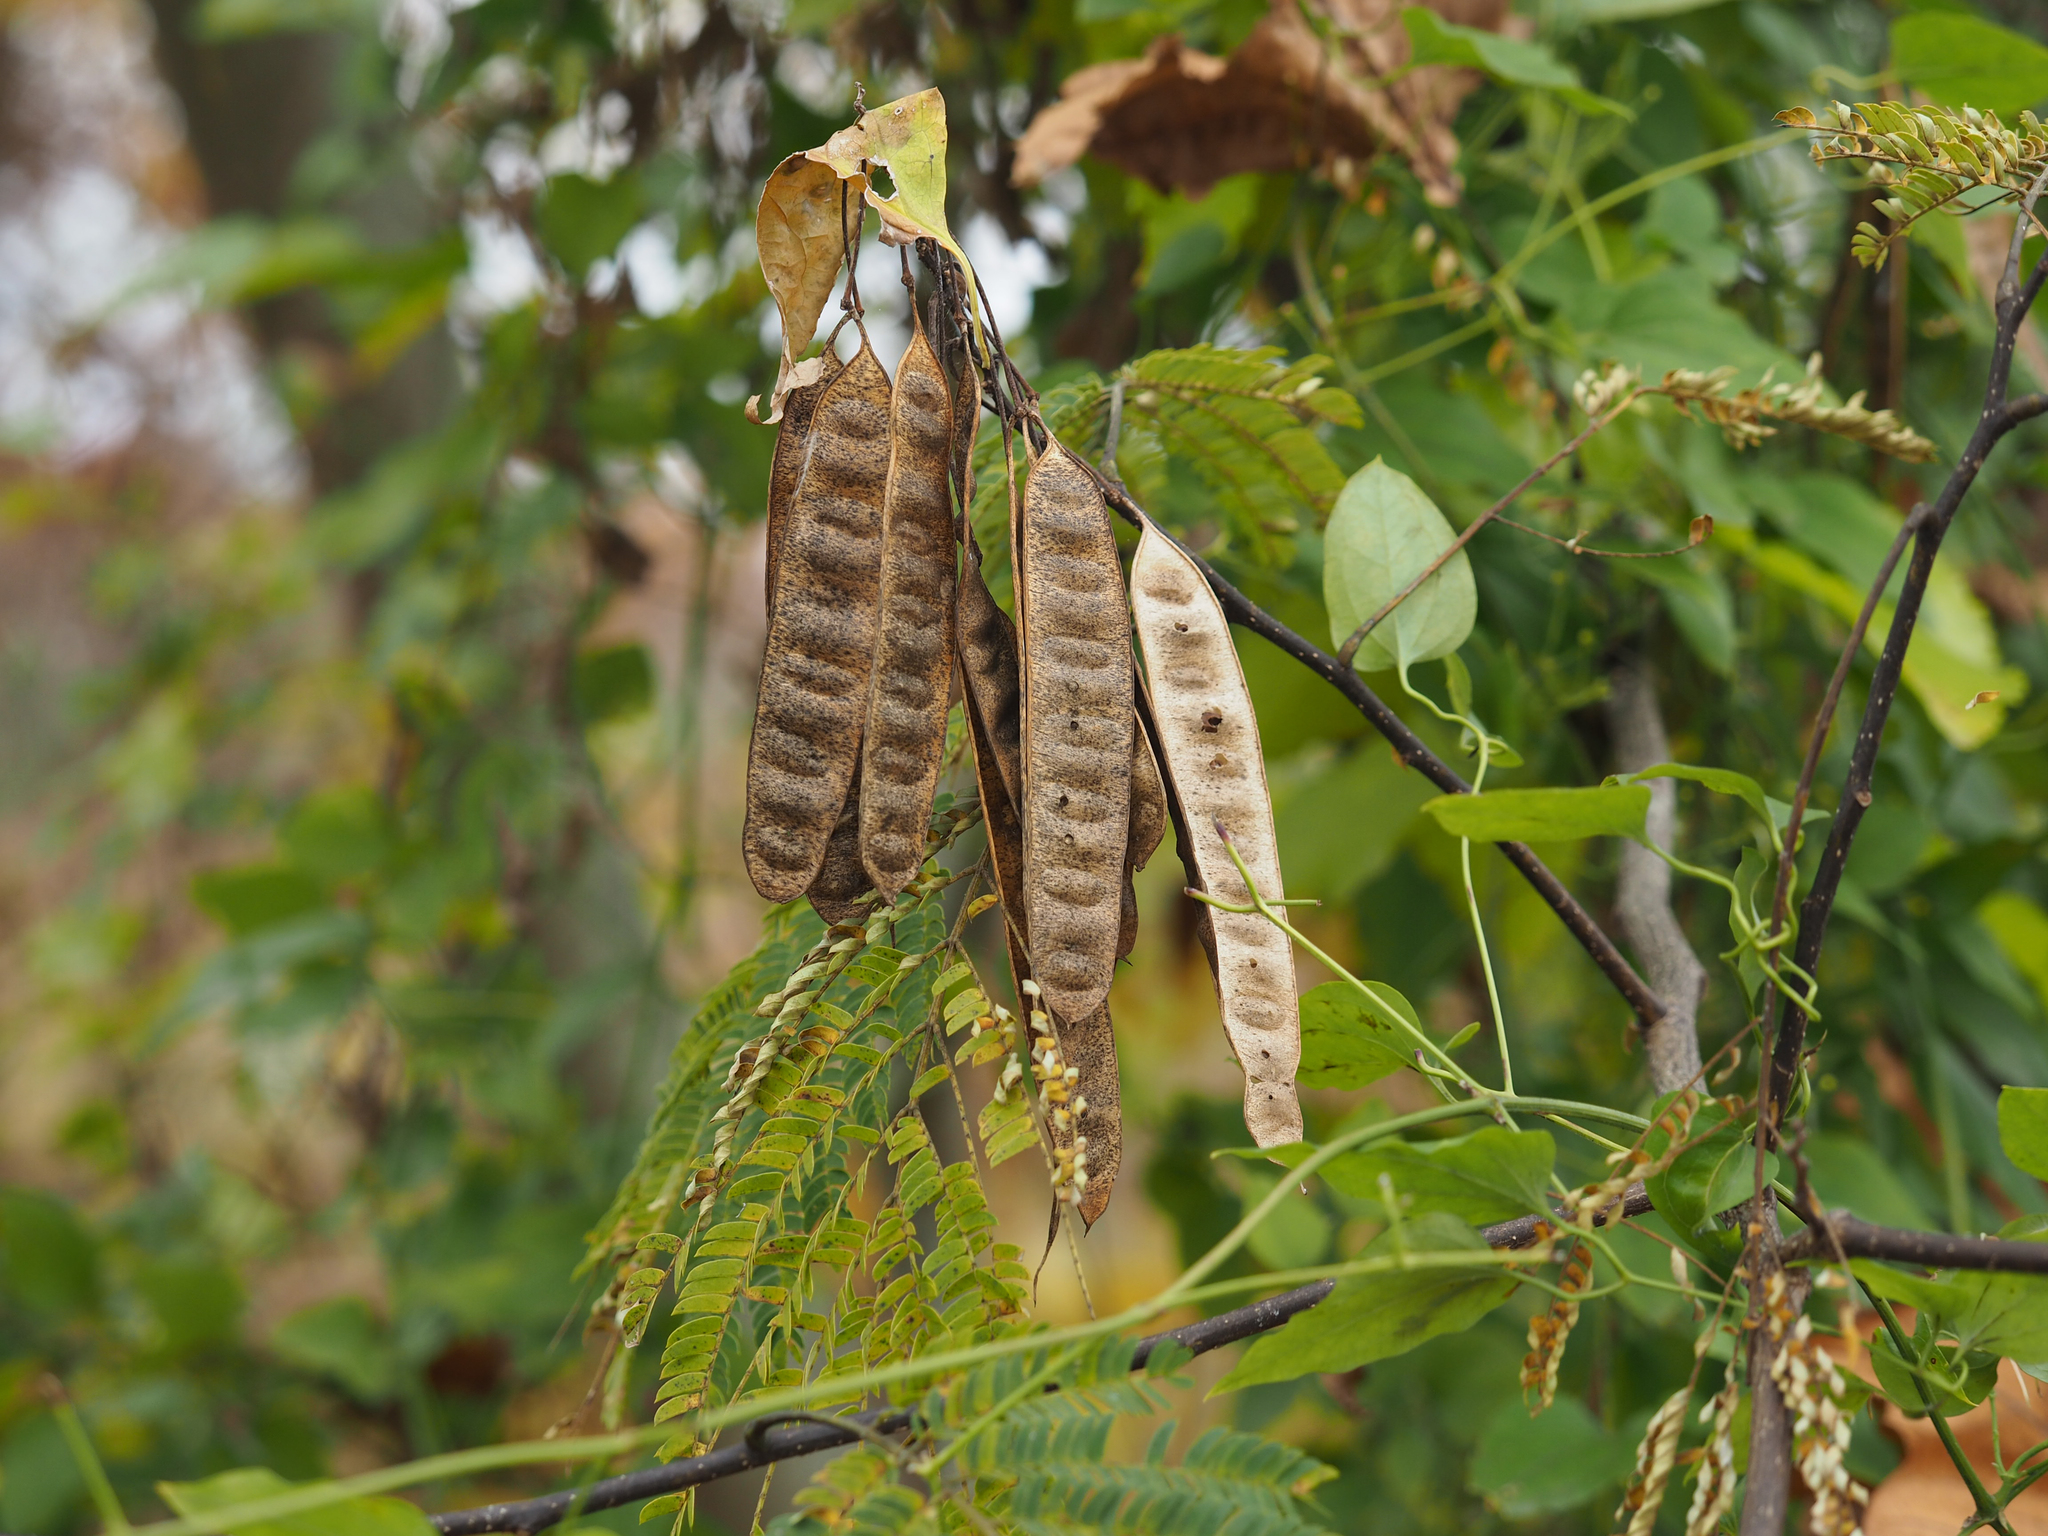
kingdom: Plantae
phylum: Tracheophyta
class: Magnoliopsida
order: Fabales
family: Fabaceae
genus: Albizia
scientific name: Albizia julibrissin
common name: Silktree
